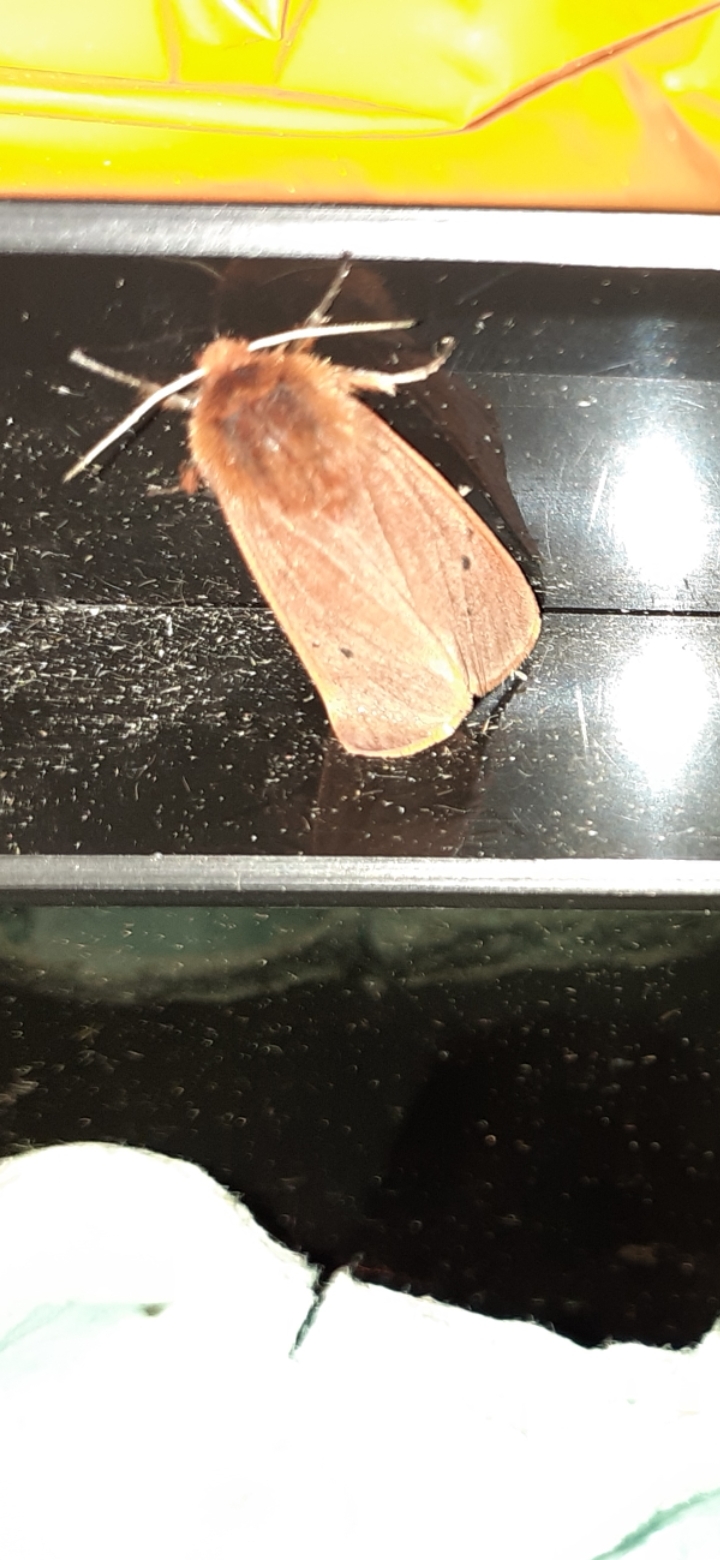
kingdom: Animalia
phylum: Arthropoda
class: Insecta
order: Lepidoptera
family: Erebidae
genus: Phragmatobia
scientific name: Phragmatobia fuliginosa
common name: Ruby tiger
